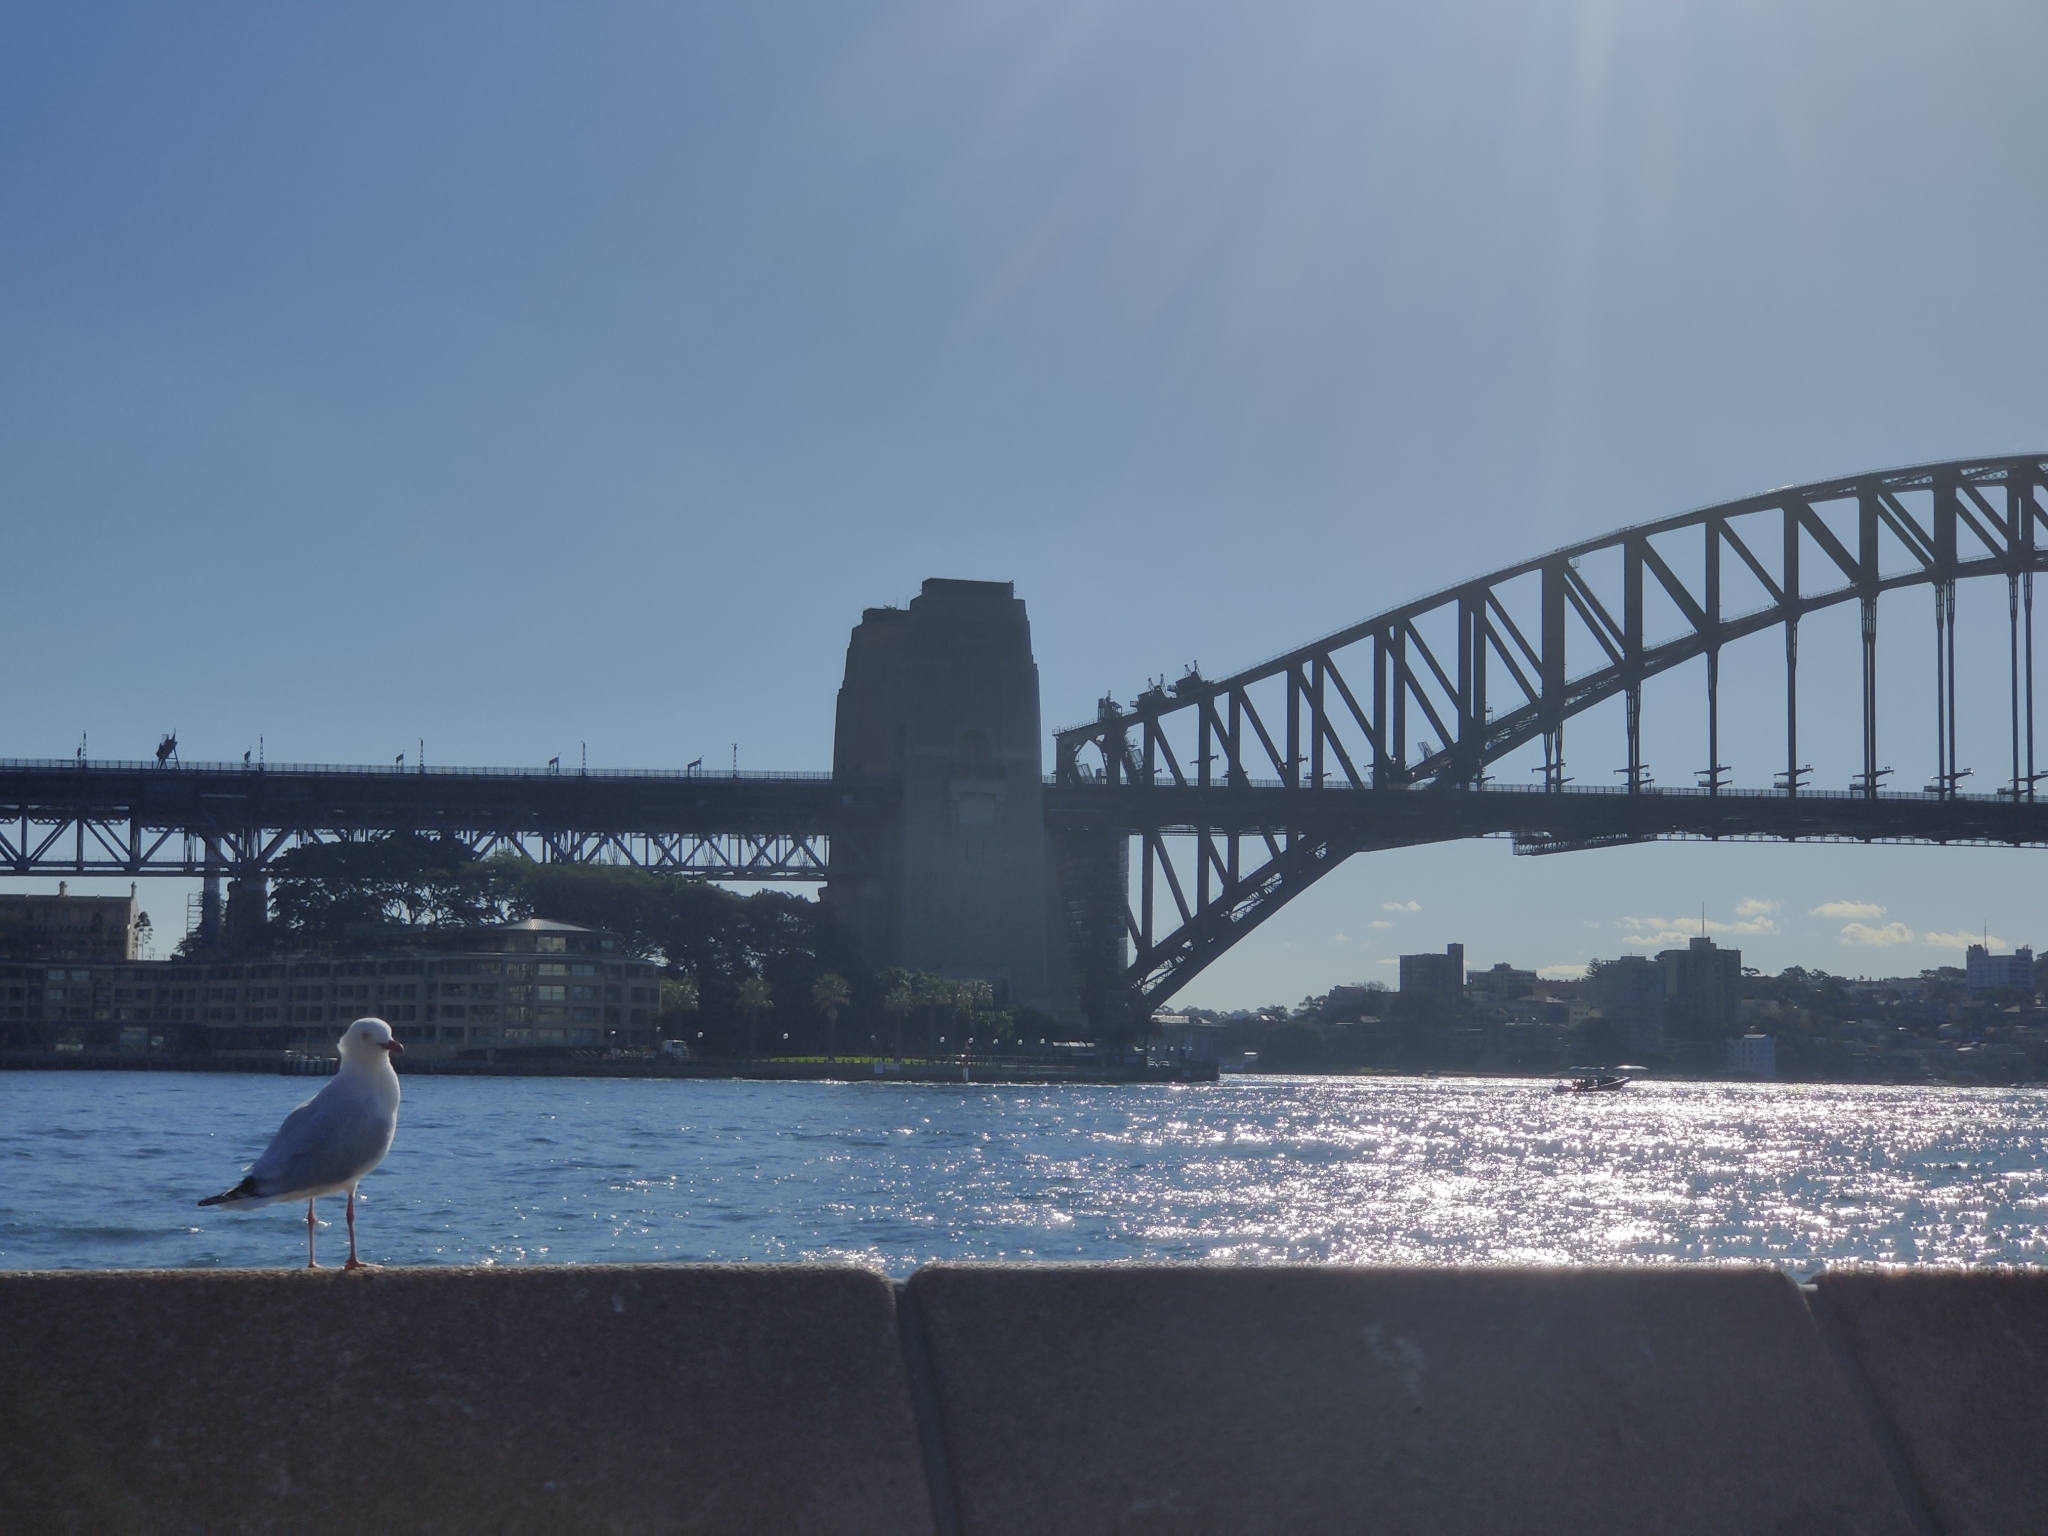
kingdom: Animalia
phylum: Chordata
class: Aves
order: Charadriiformes
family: Laridae
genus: Chroicocephalus
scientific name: Chroicocephalus novaehollandiae
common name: Silver gull
